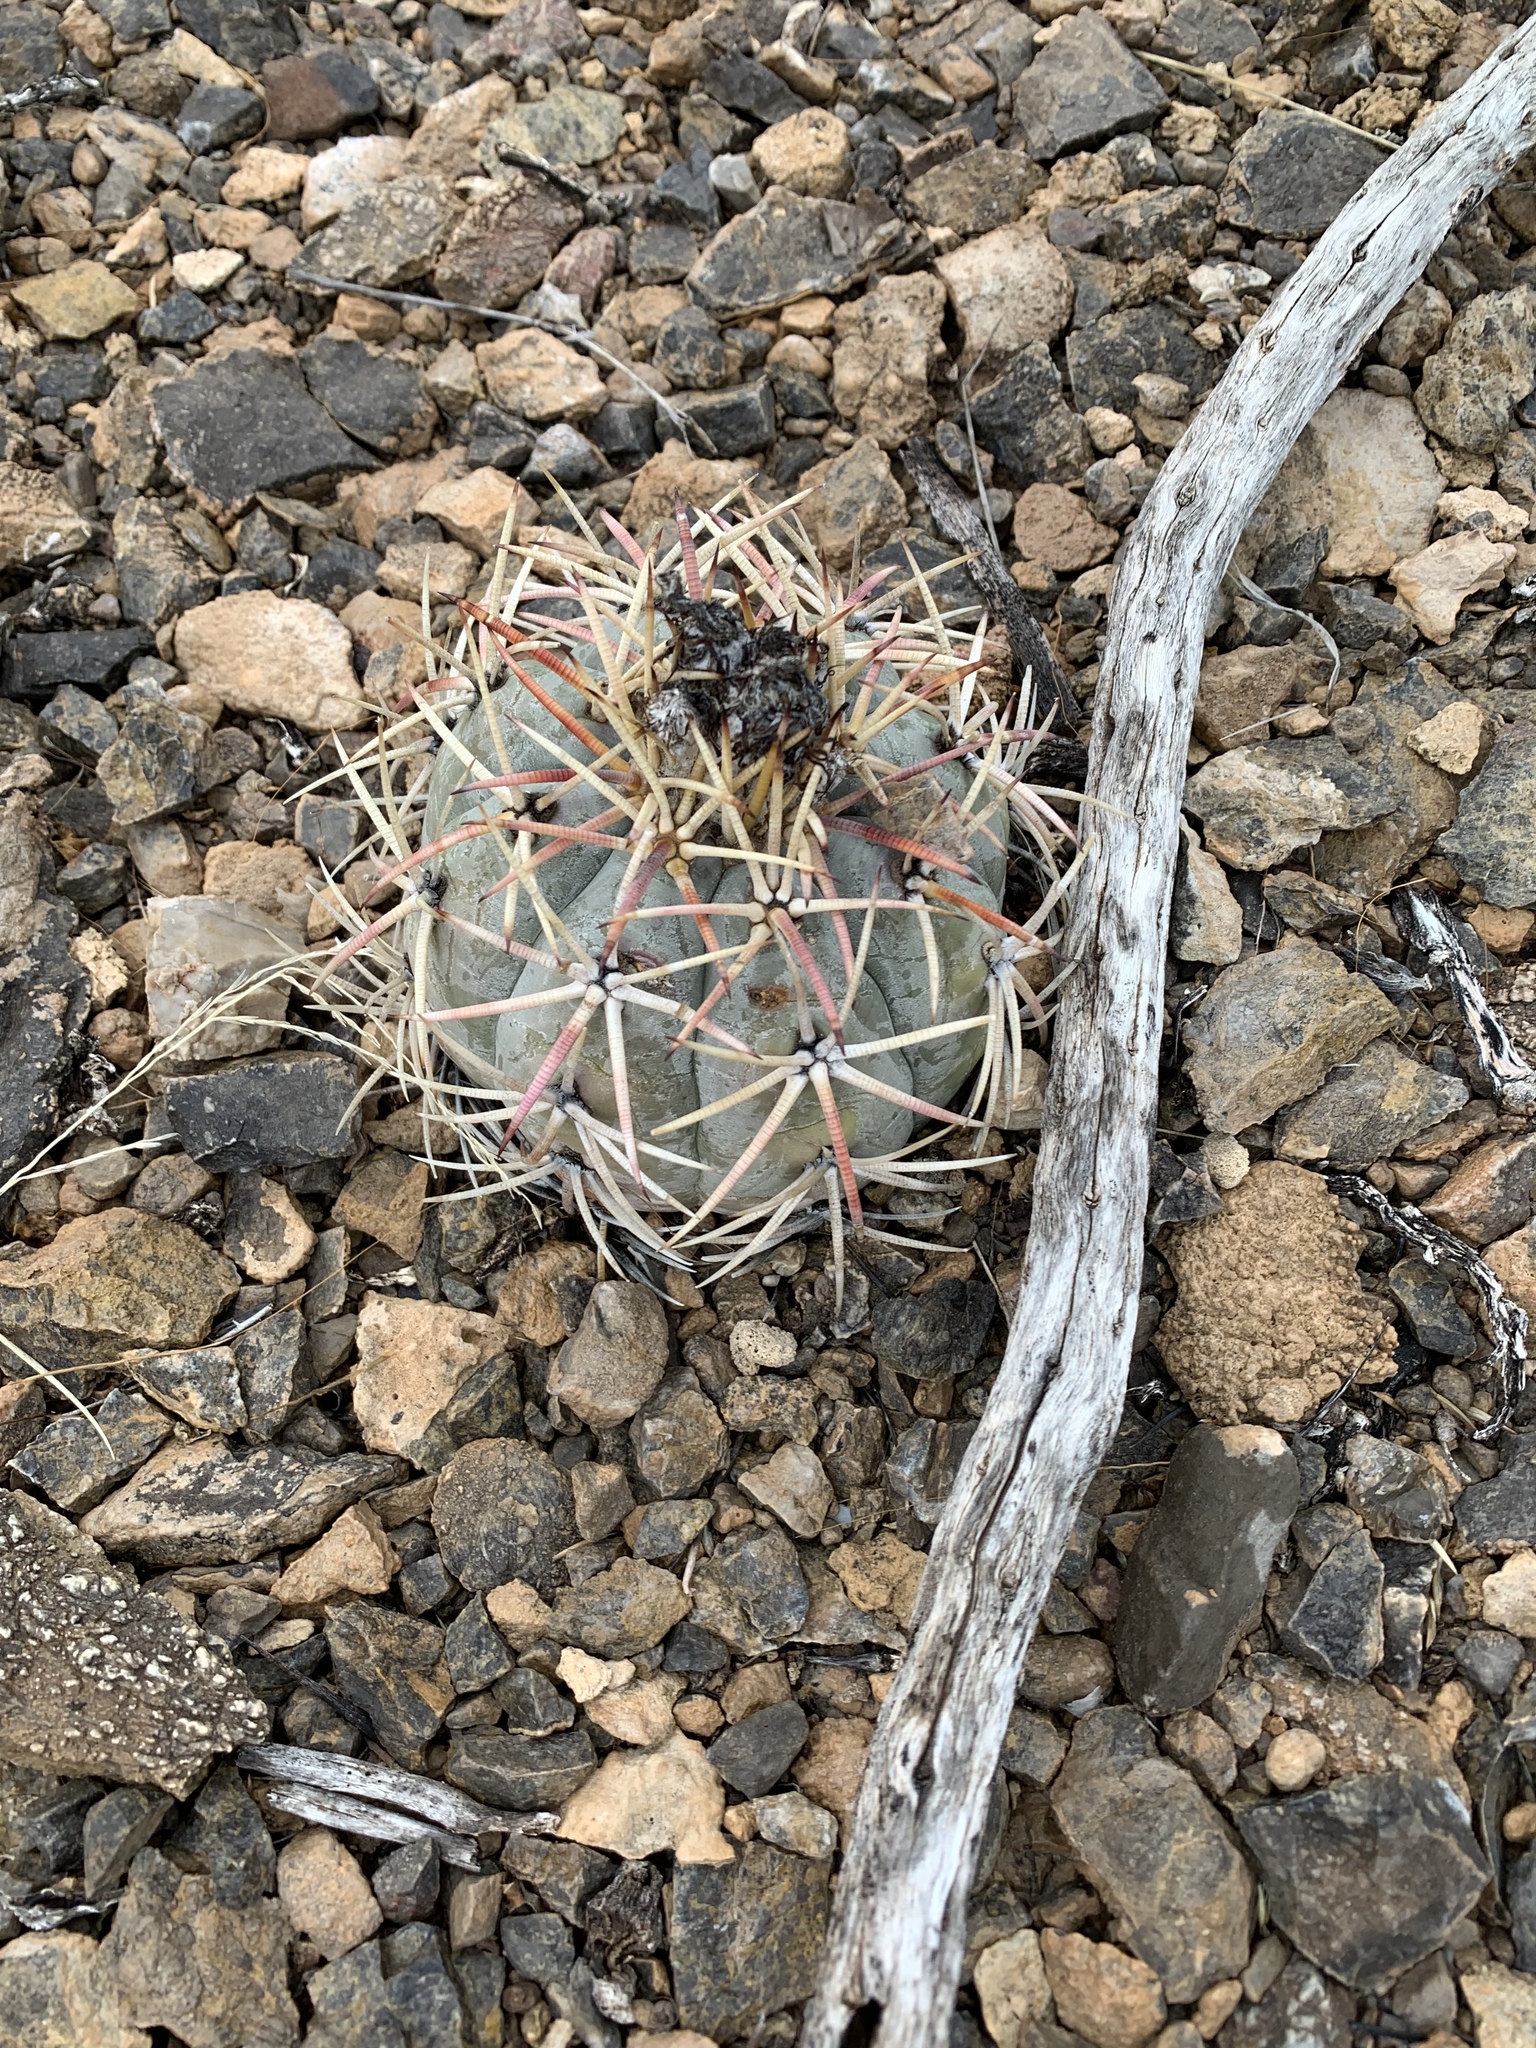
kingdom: Plantae
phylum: Tracheophyta
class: Magnoliopsida
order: Caryophyllales
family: Cactaceae
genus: Echinocactus
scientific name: Echinocactus horizonthalonius
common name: Devilshead
